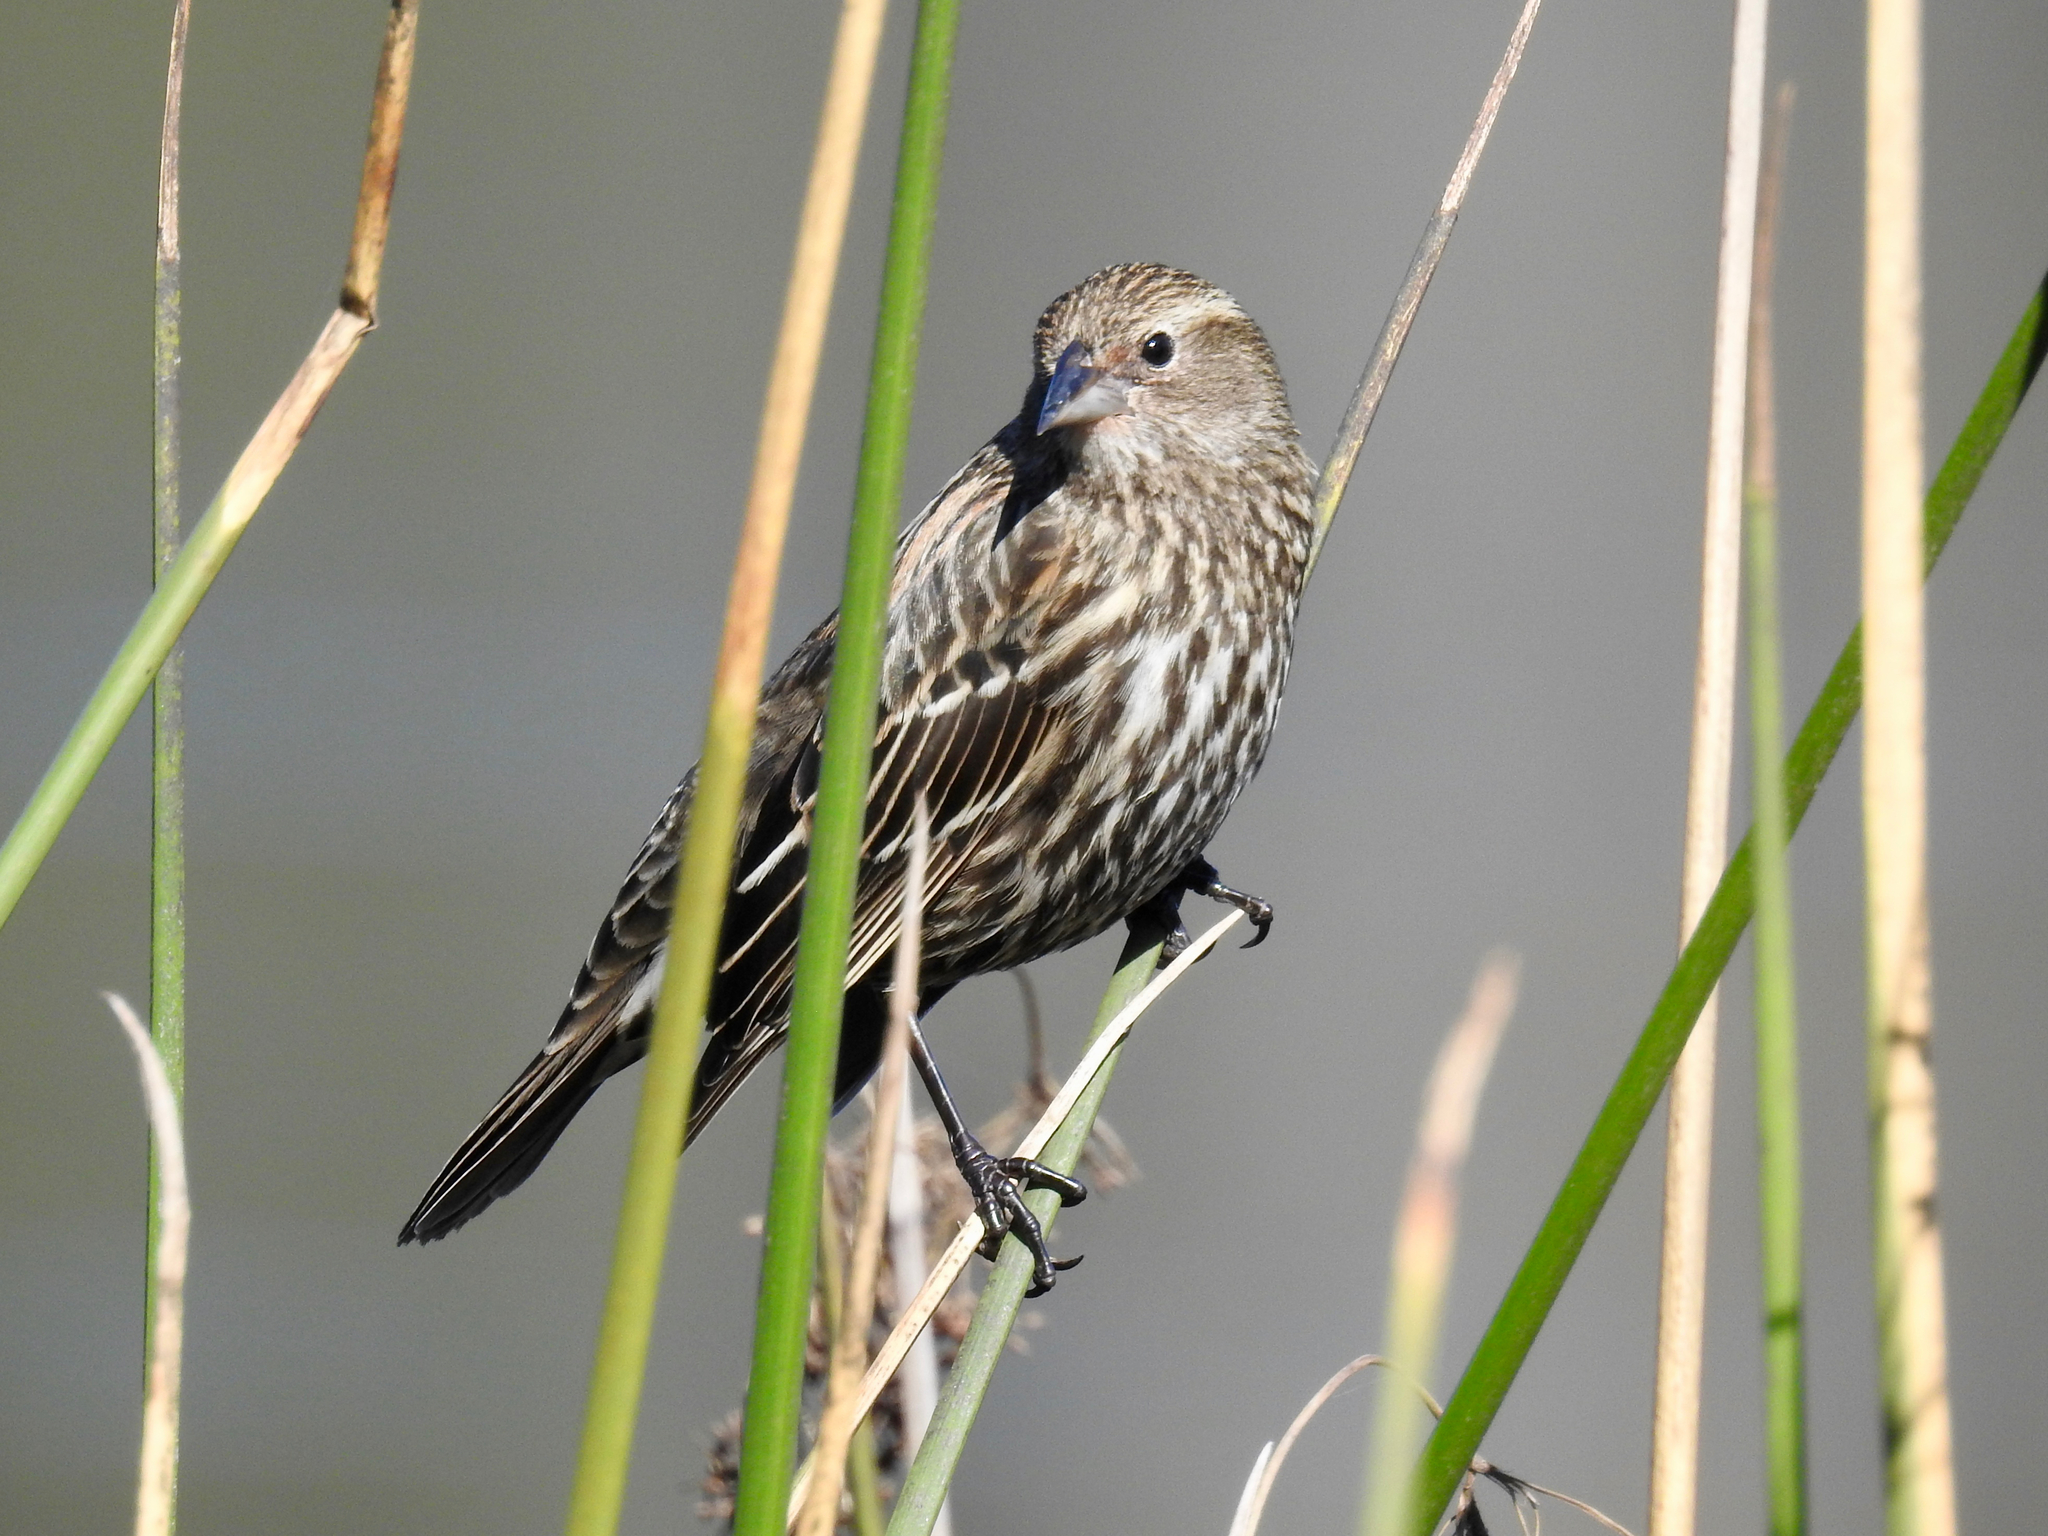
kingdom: Animalia
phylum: Chordata
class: Aves
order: Passeriformes
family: Icteridae
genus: Agelaius
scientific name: Agelaius phoeniceus
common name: Red-winged blackbird
